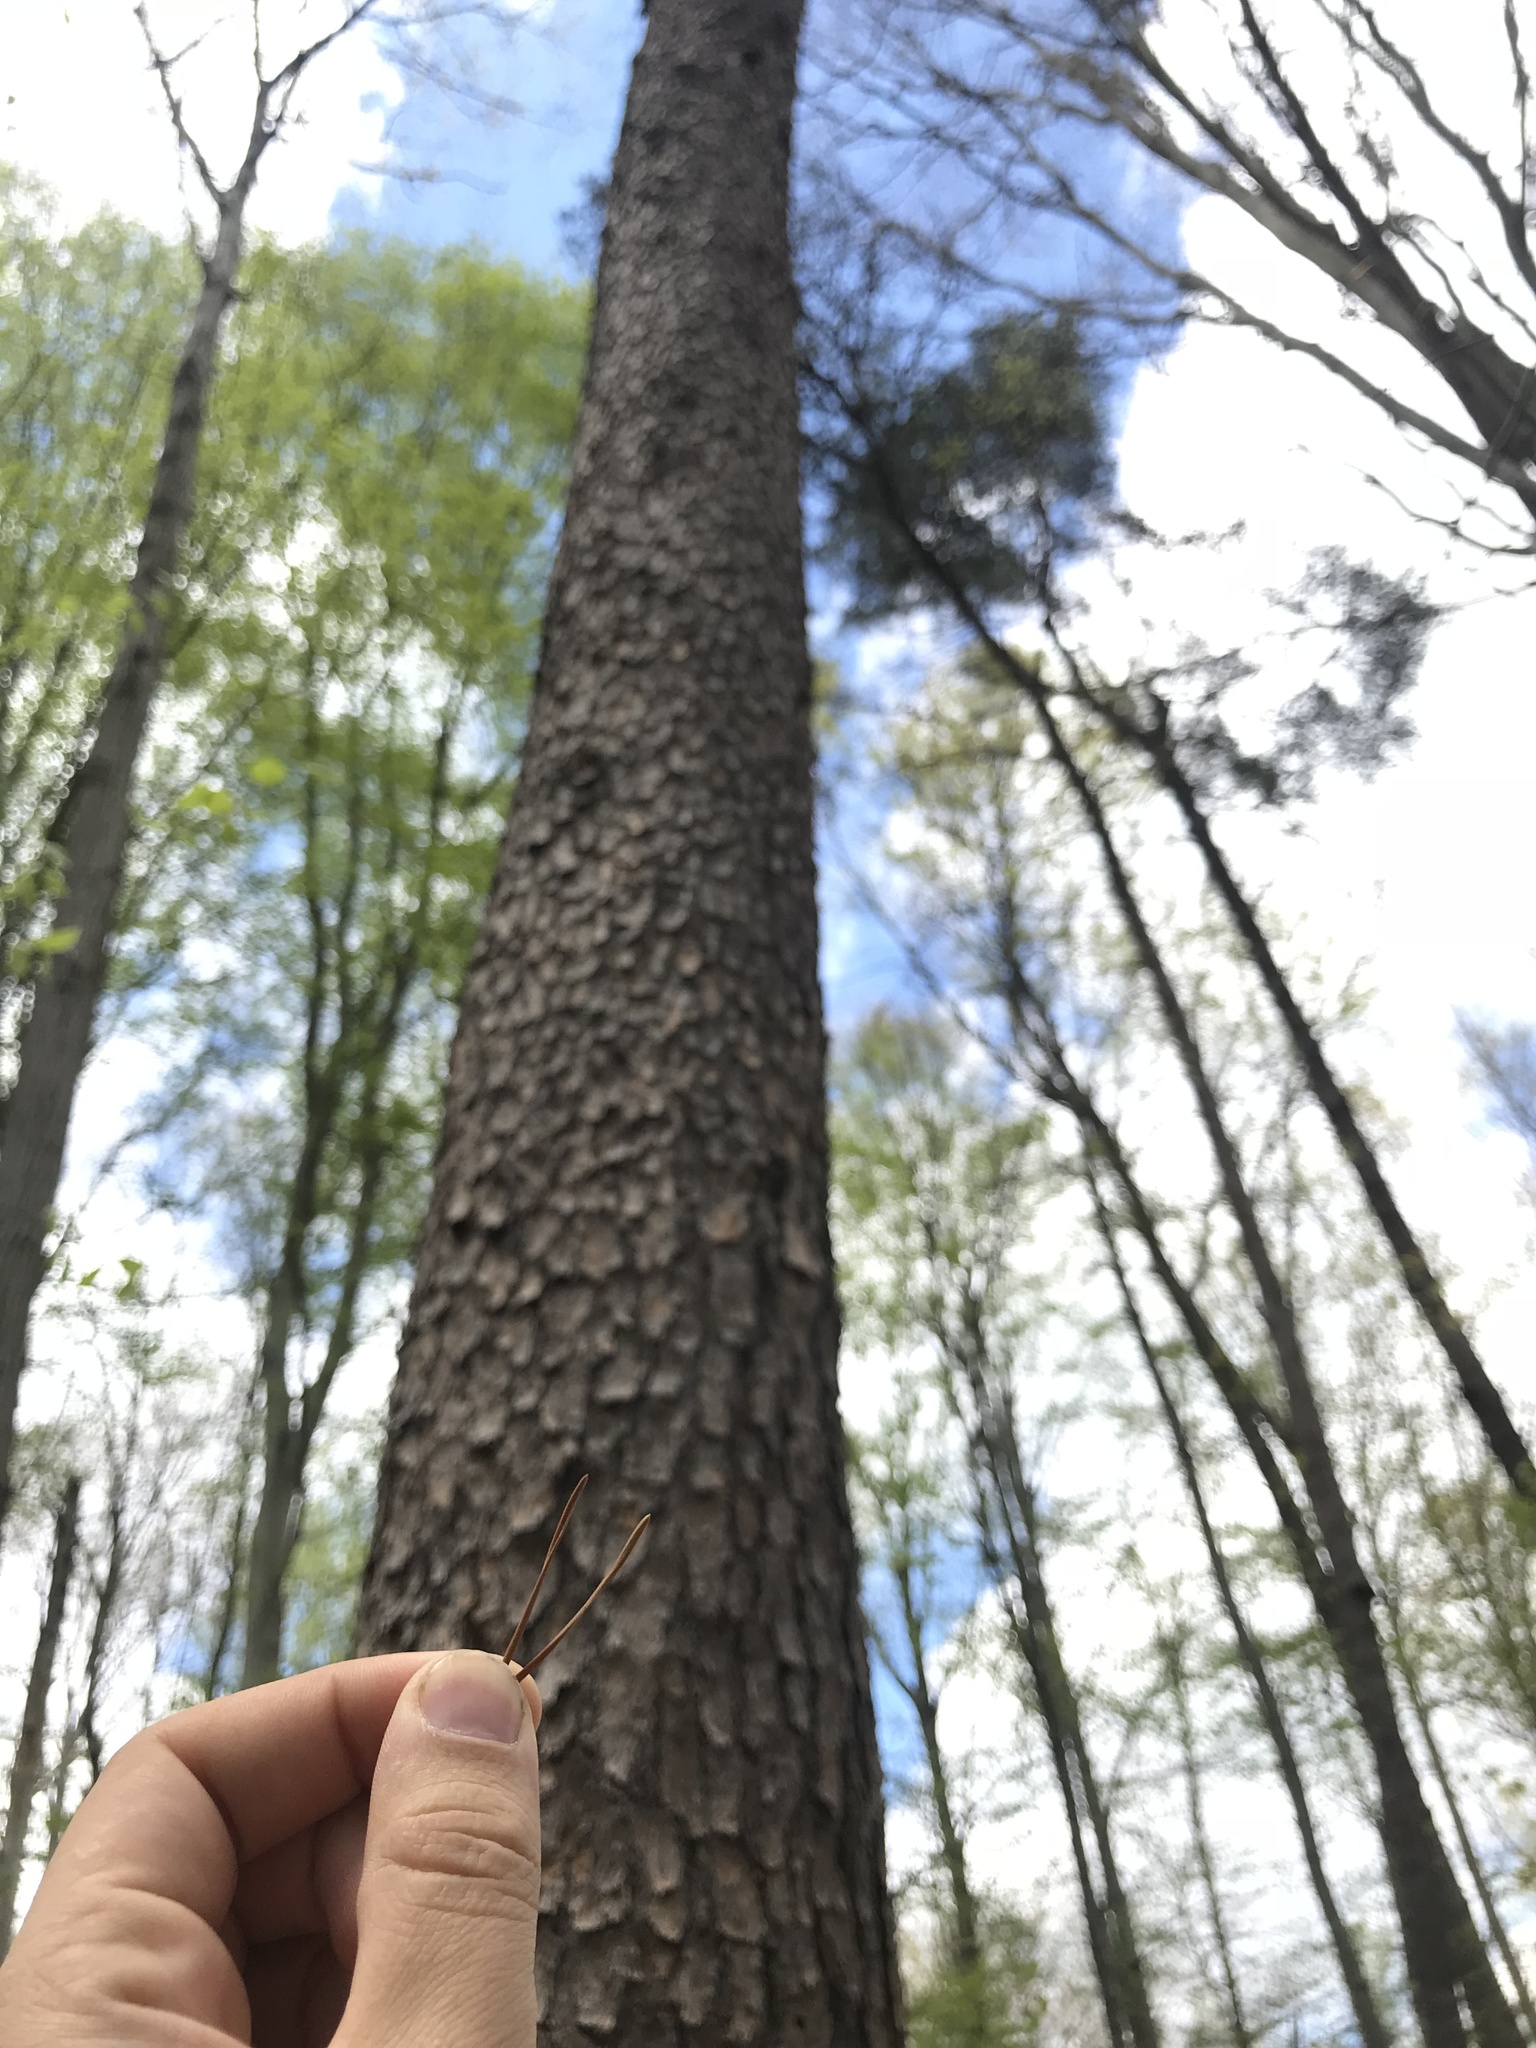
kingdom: Plantae
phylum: Tracheophyta
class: Pinopsida
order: Pinales
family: Pinaceae
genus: Pinus
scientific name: Pinus virginiana
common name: Scrub pine
